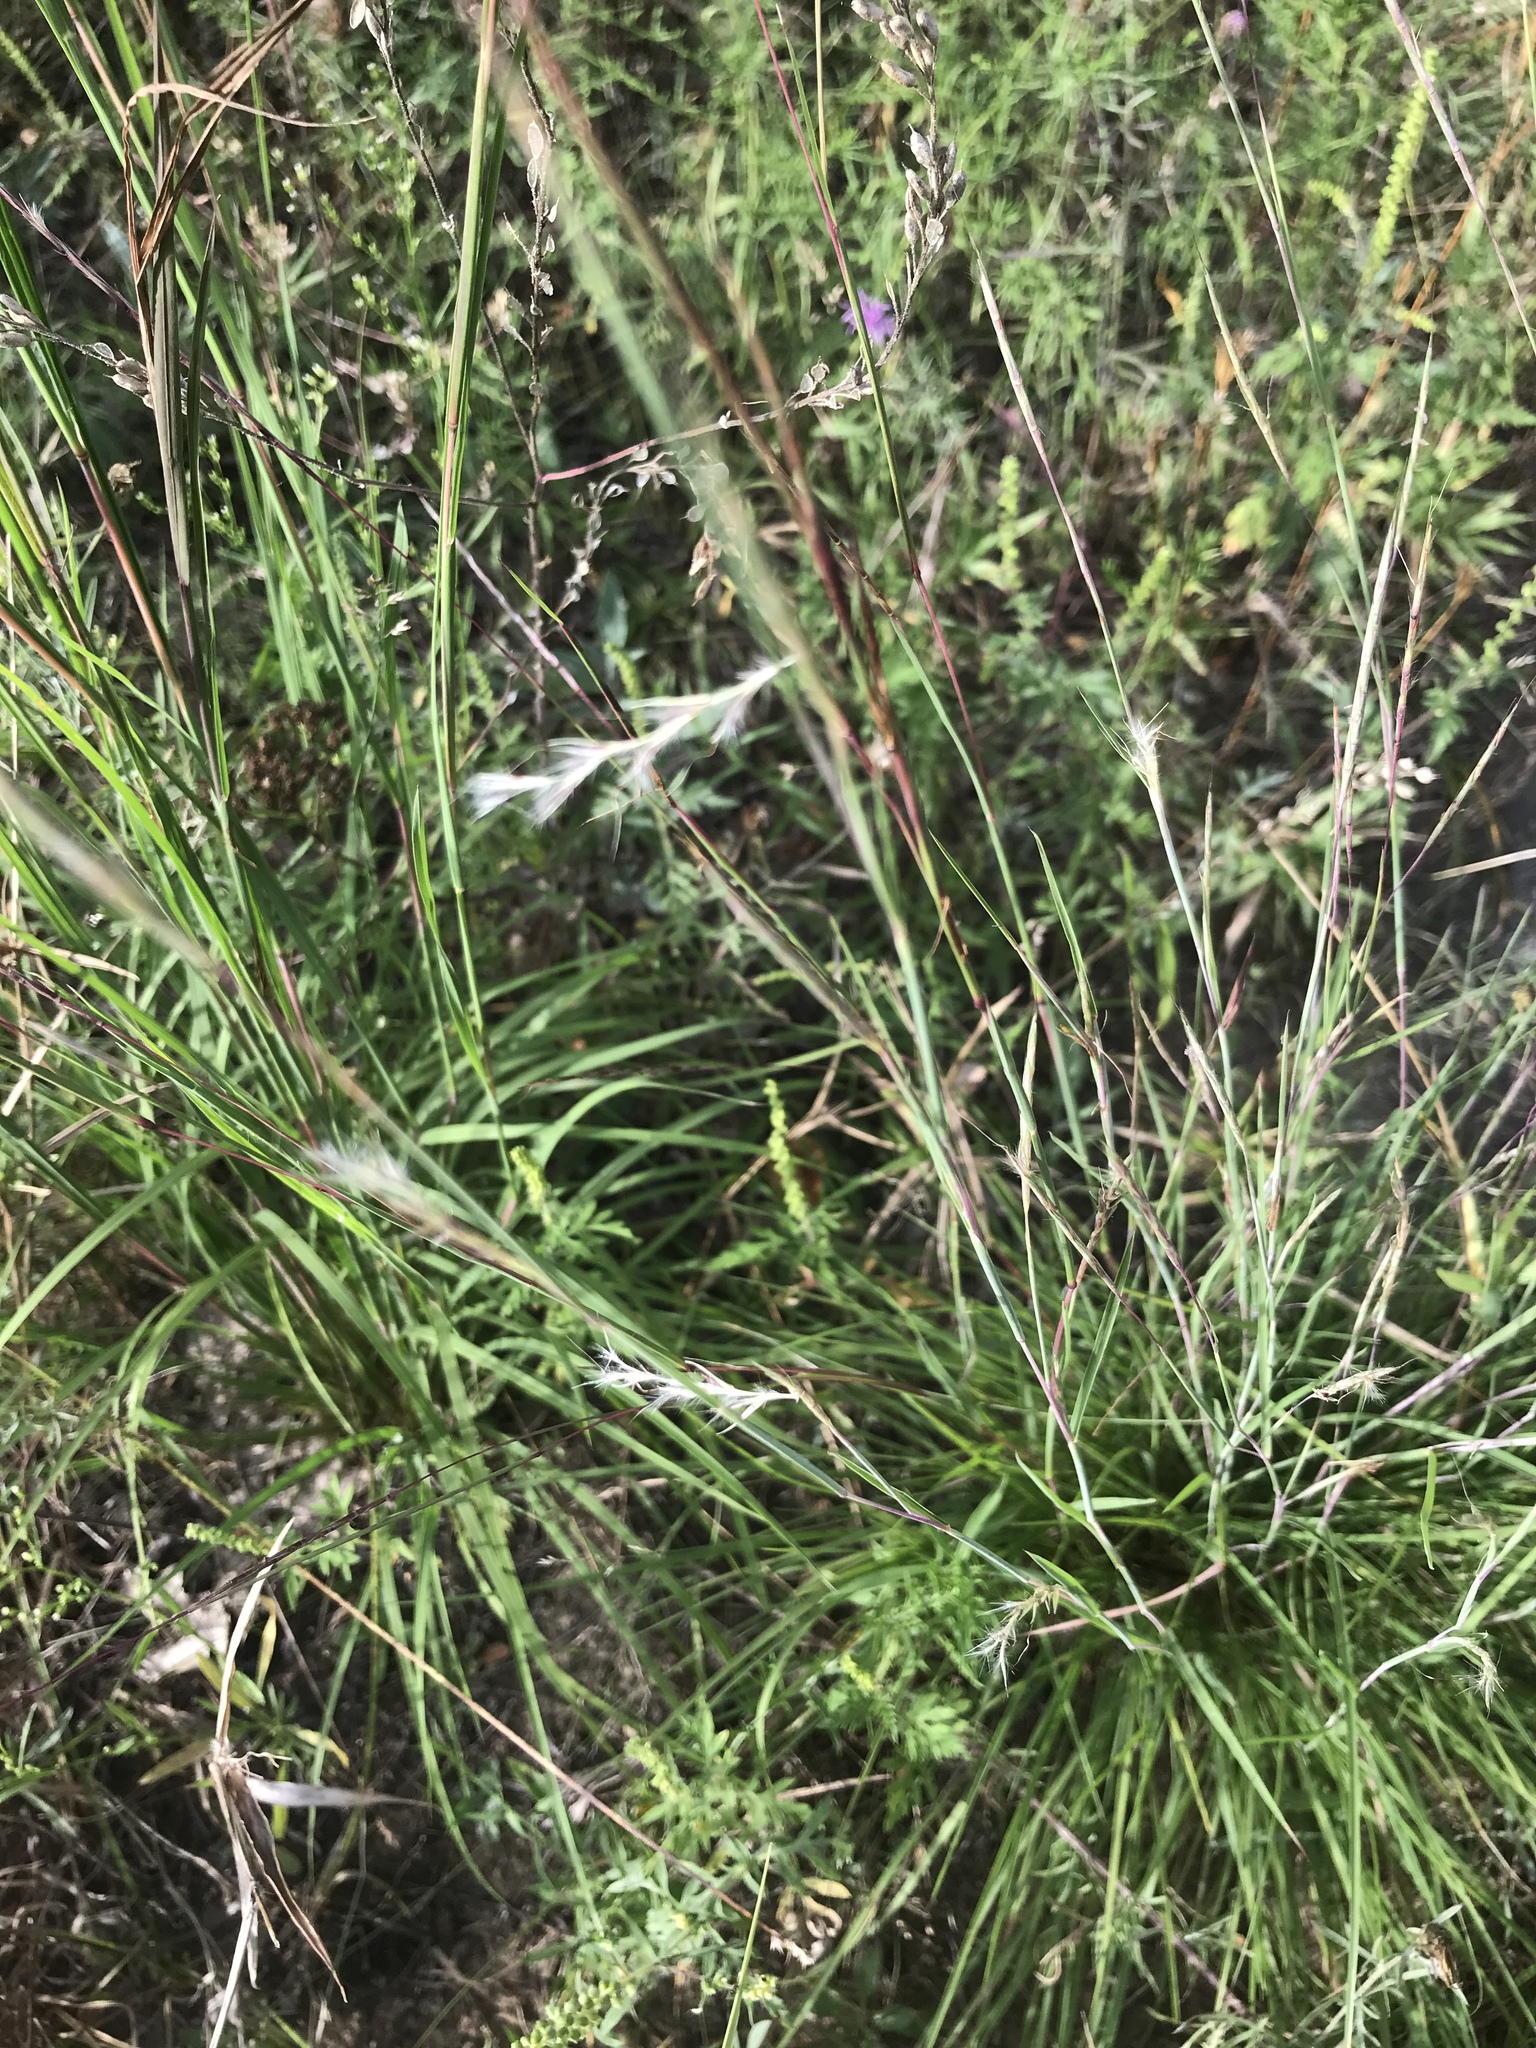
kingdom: Plantae
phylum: Tracheophyta
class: Liliopsida
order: Poales
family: Poaceae
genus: Schizachyrium
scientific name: Schizachyrium scoparium
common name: Little bluestem
